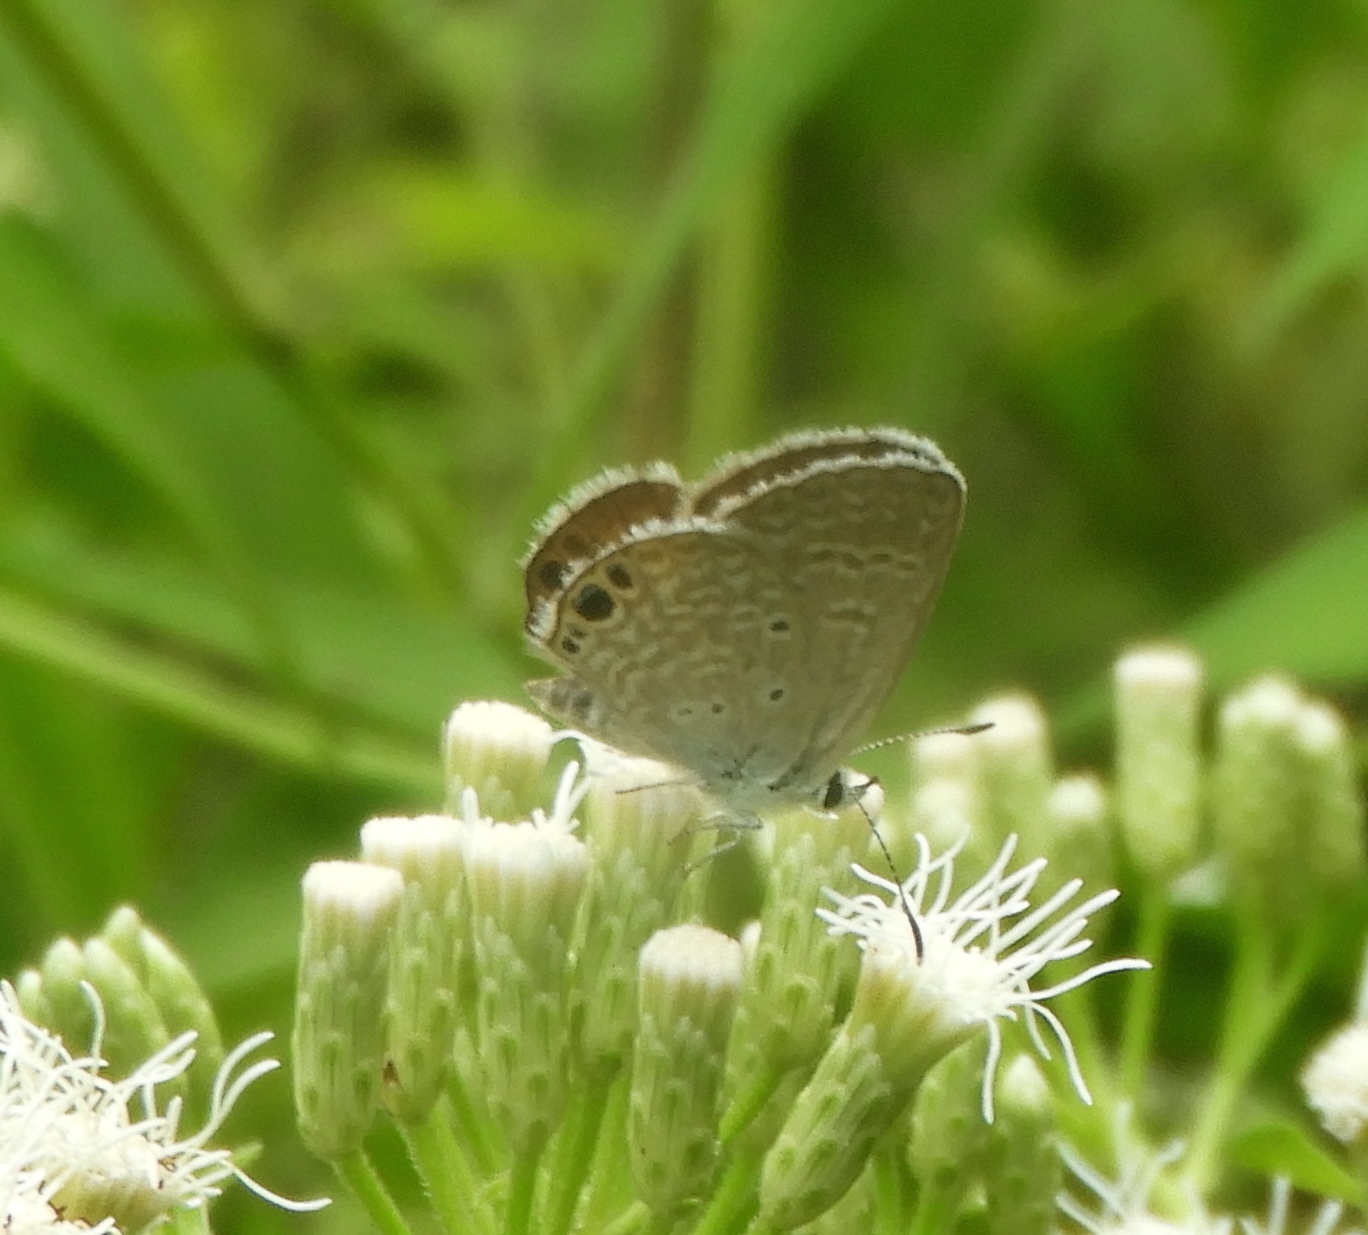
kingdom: Animalia
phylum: Arthropoda
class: Insecta
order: Lepidoptera
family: Lycaenidae
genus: Hemiargus
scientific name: Hemiargus ceraunus
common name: Ceraunus blue
